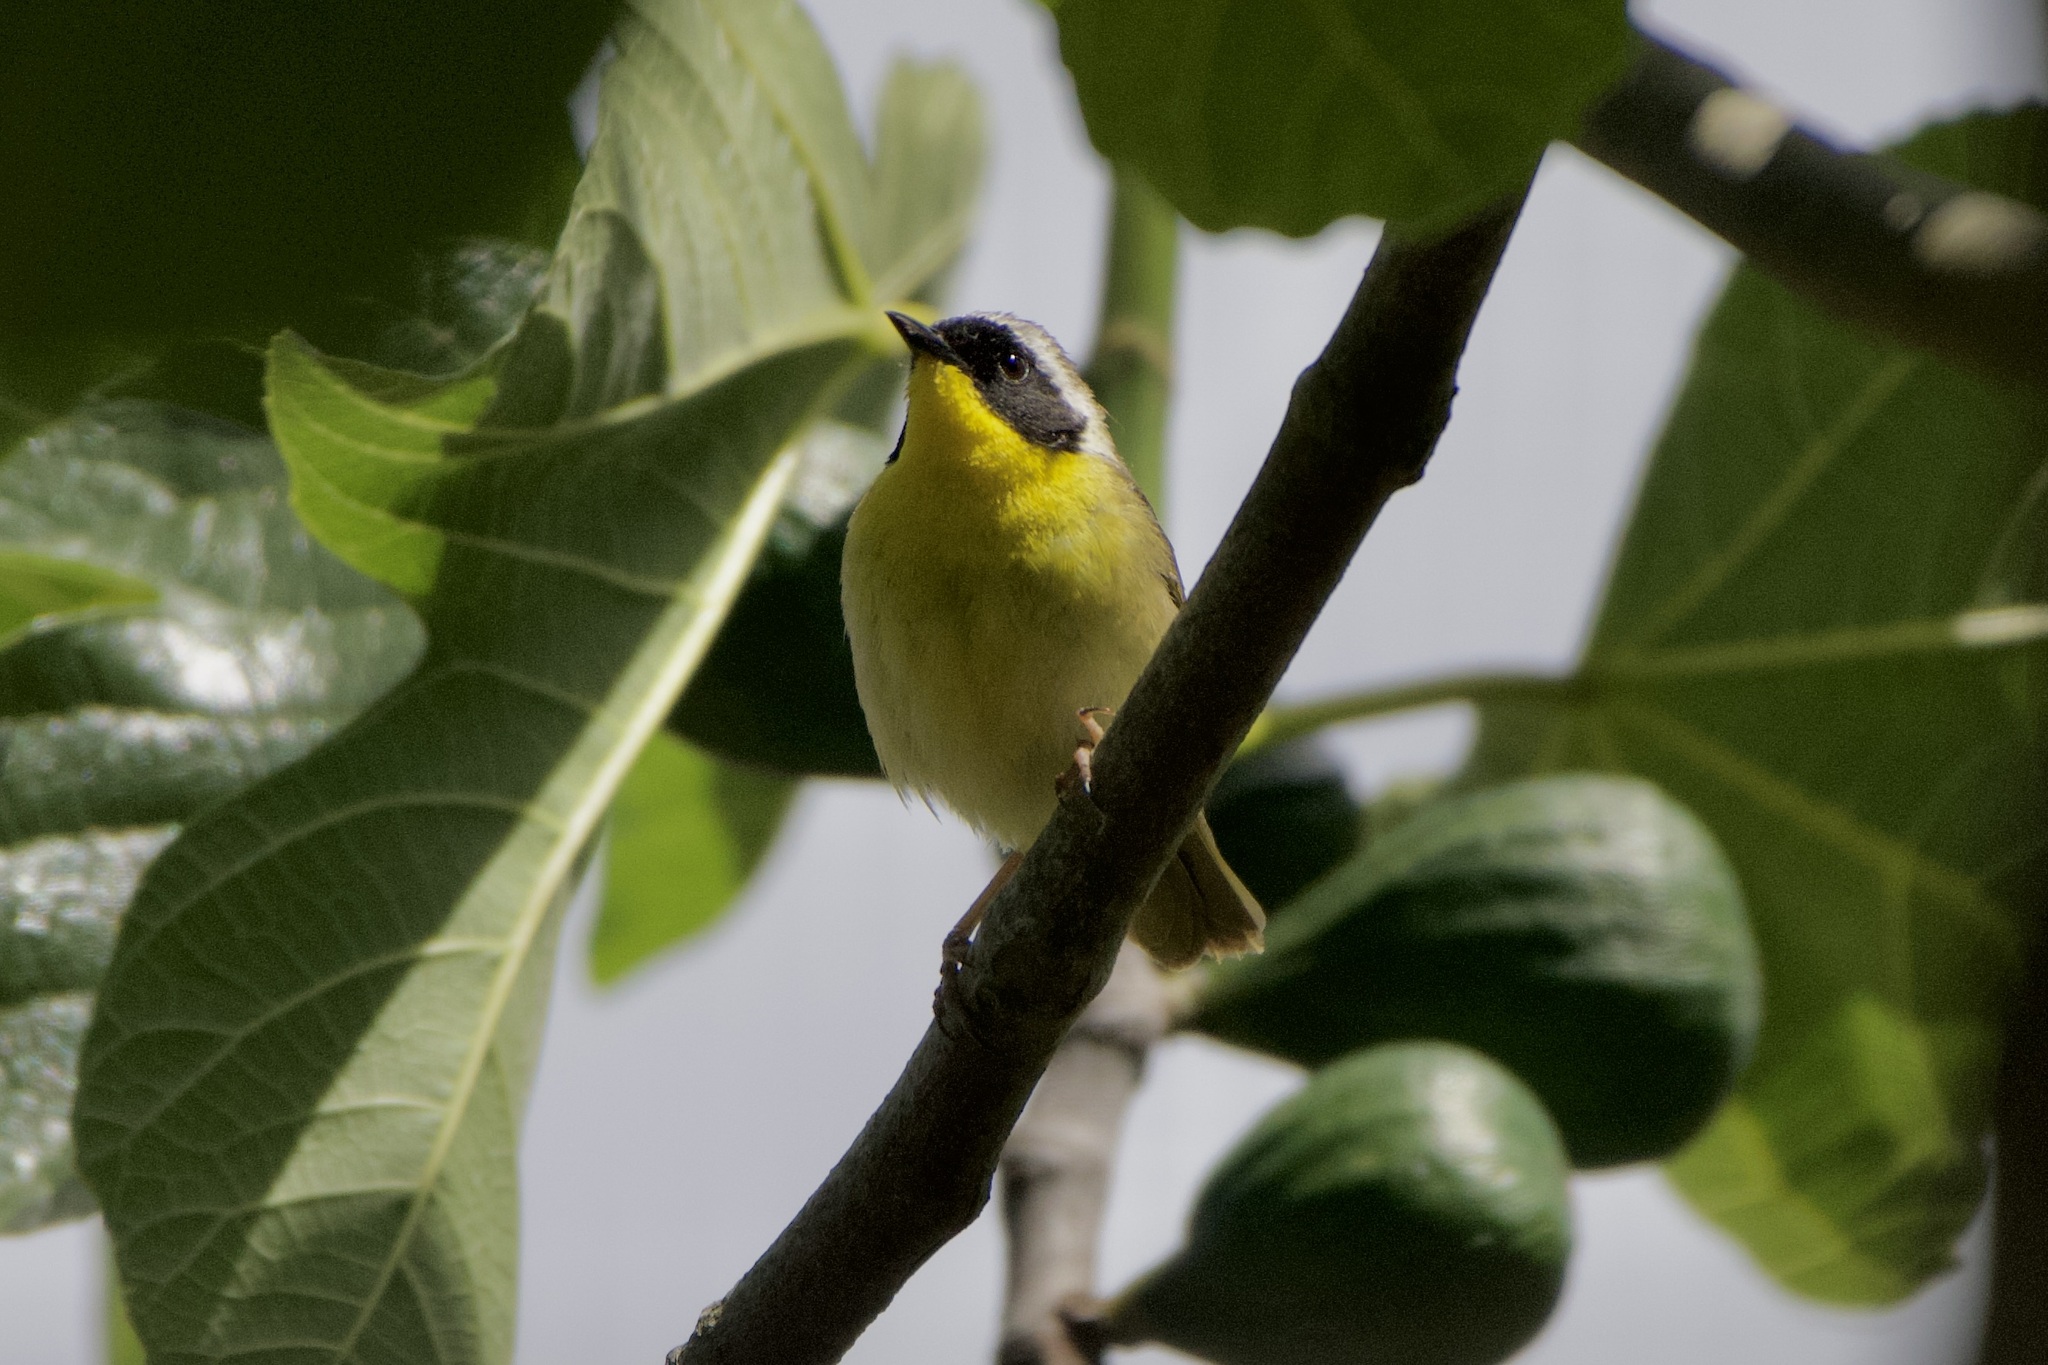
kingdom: Animalia
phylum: Chordata
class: Aves
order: Passeriformes
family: Parulidae
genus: Geothlypis
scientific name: Geothlypis trichas
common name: Common yellowthroat
